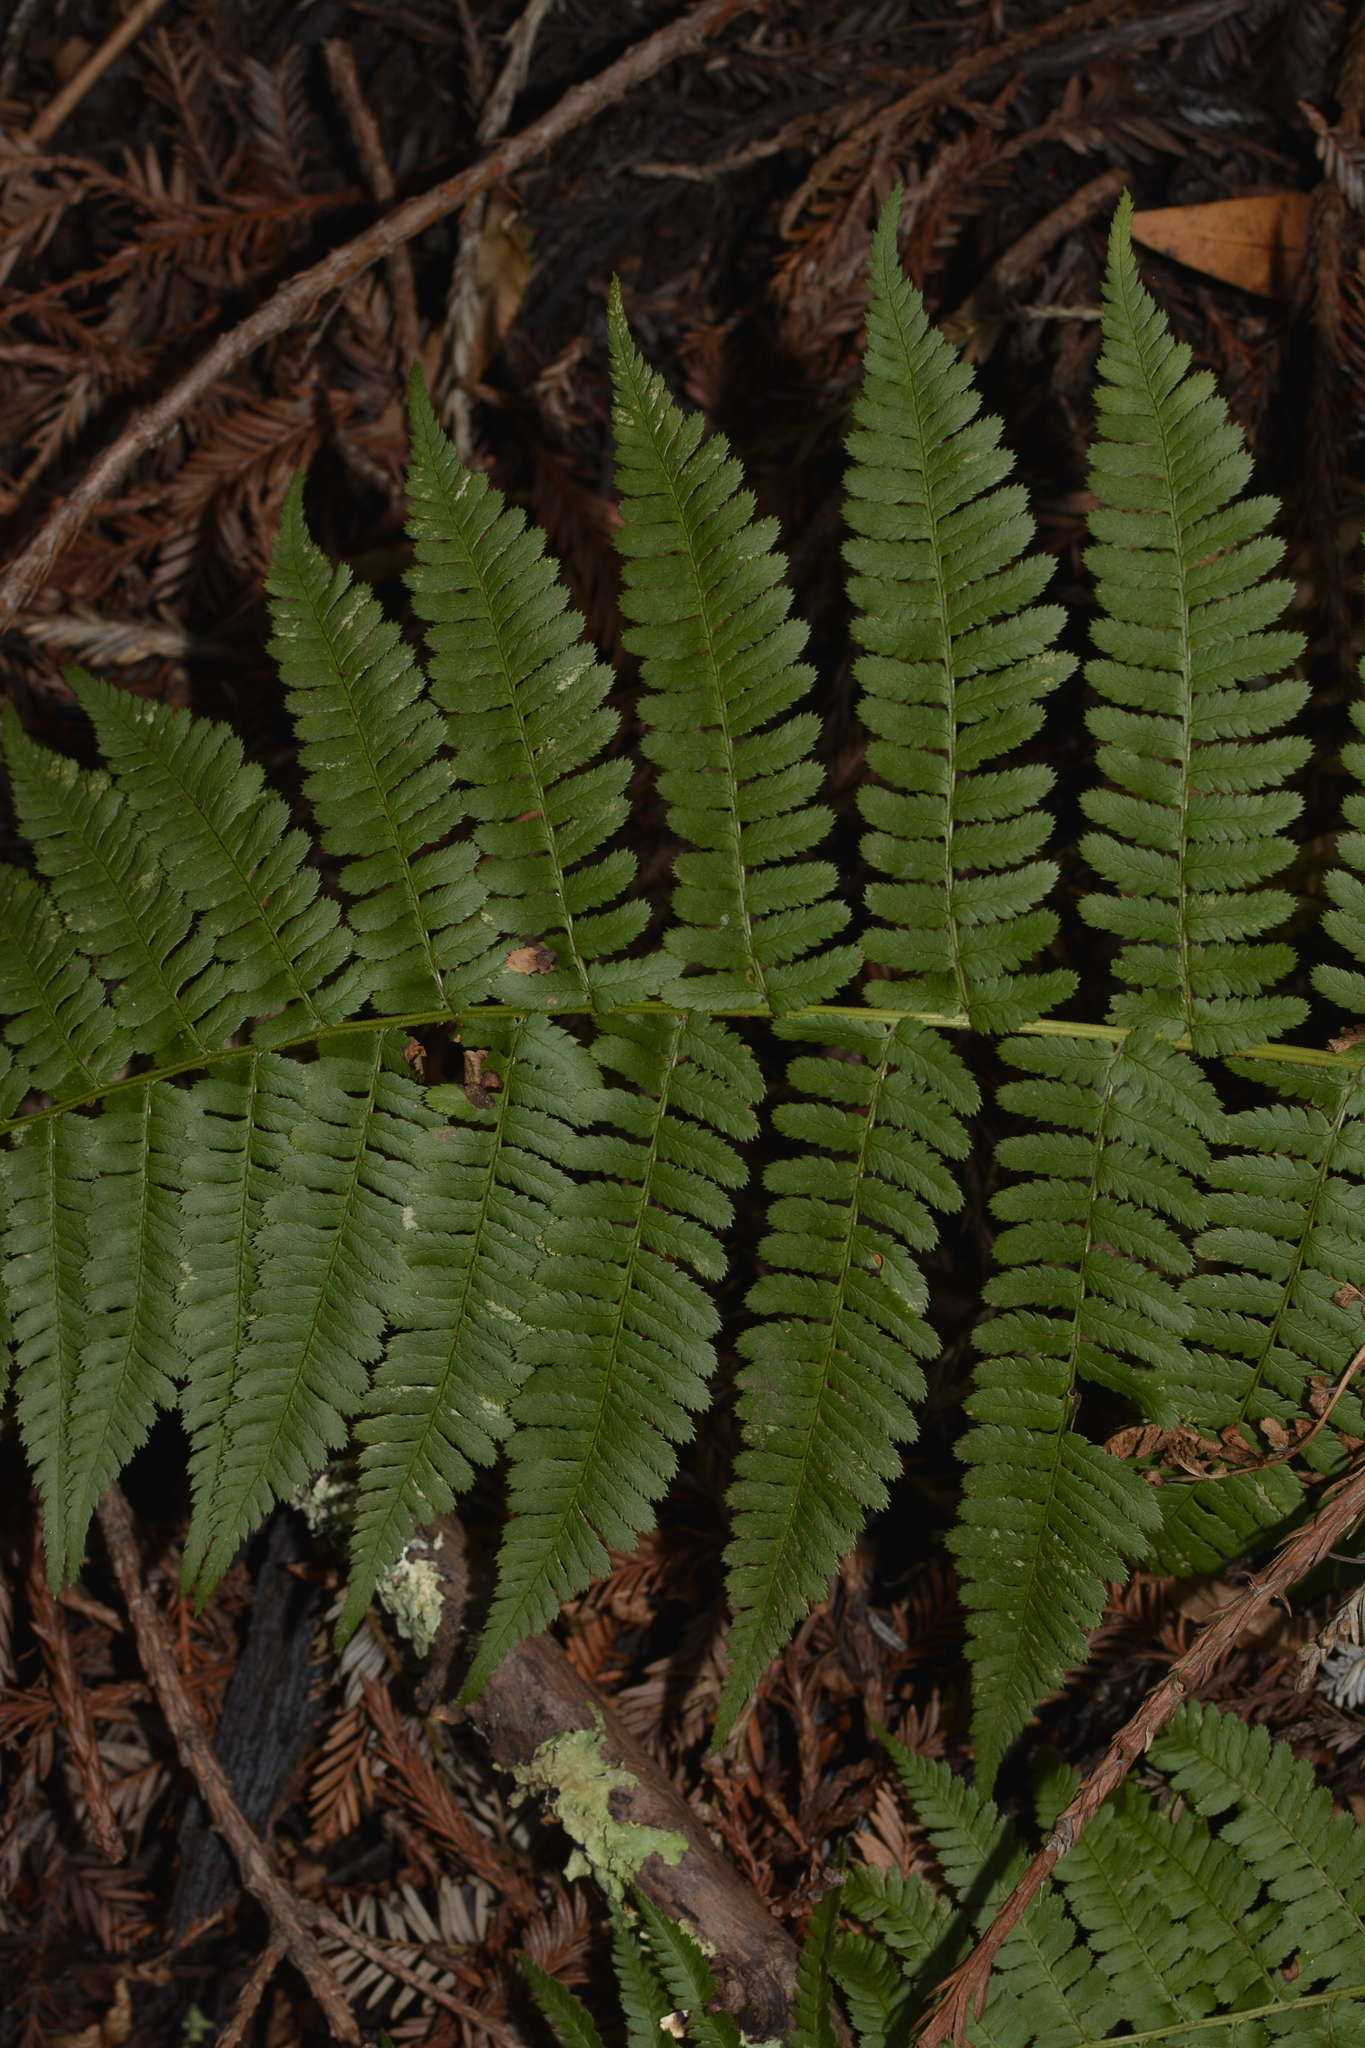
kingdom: Plantae
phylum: Tracheophyta
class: Polypodiopsida
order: Polypodiales
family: Dryopteridaceae
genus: Dryopteris
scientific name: Dryopteris arguta
